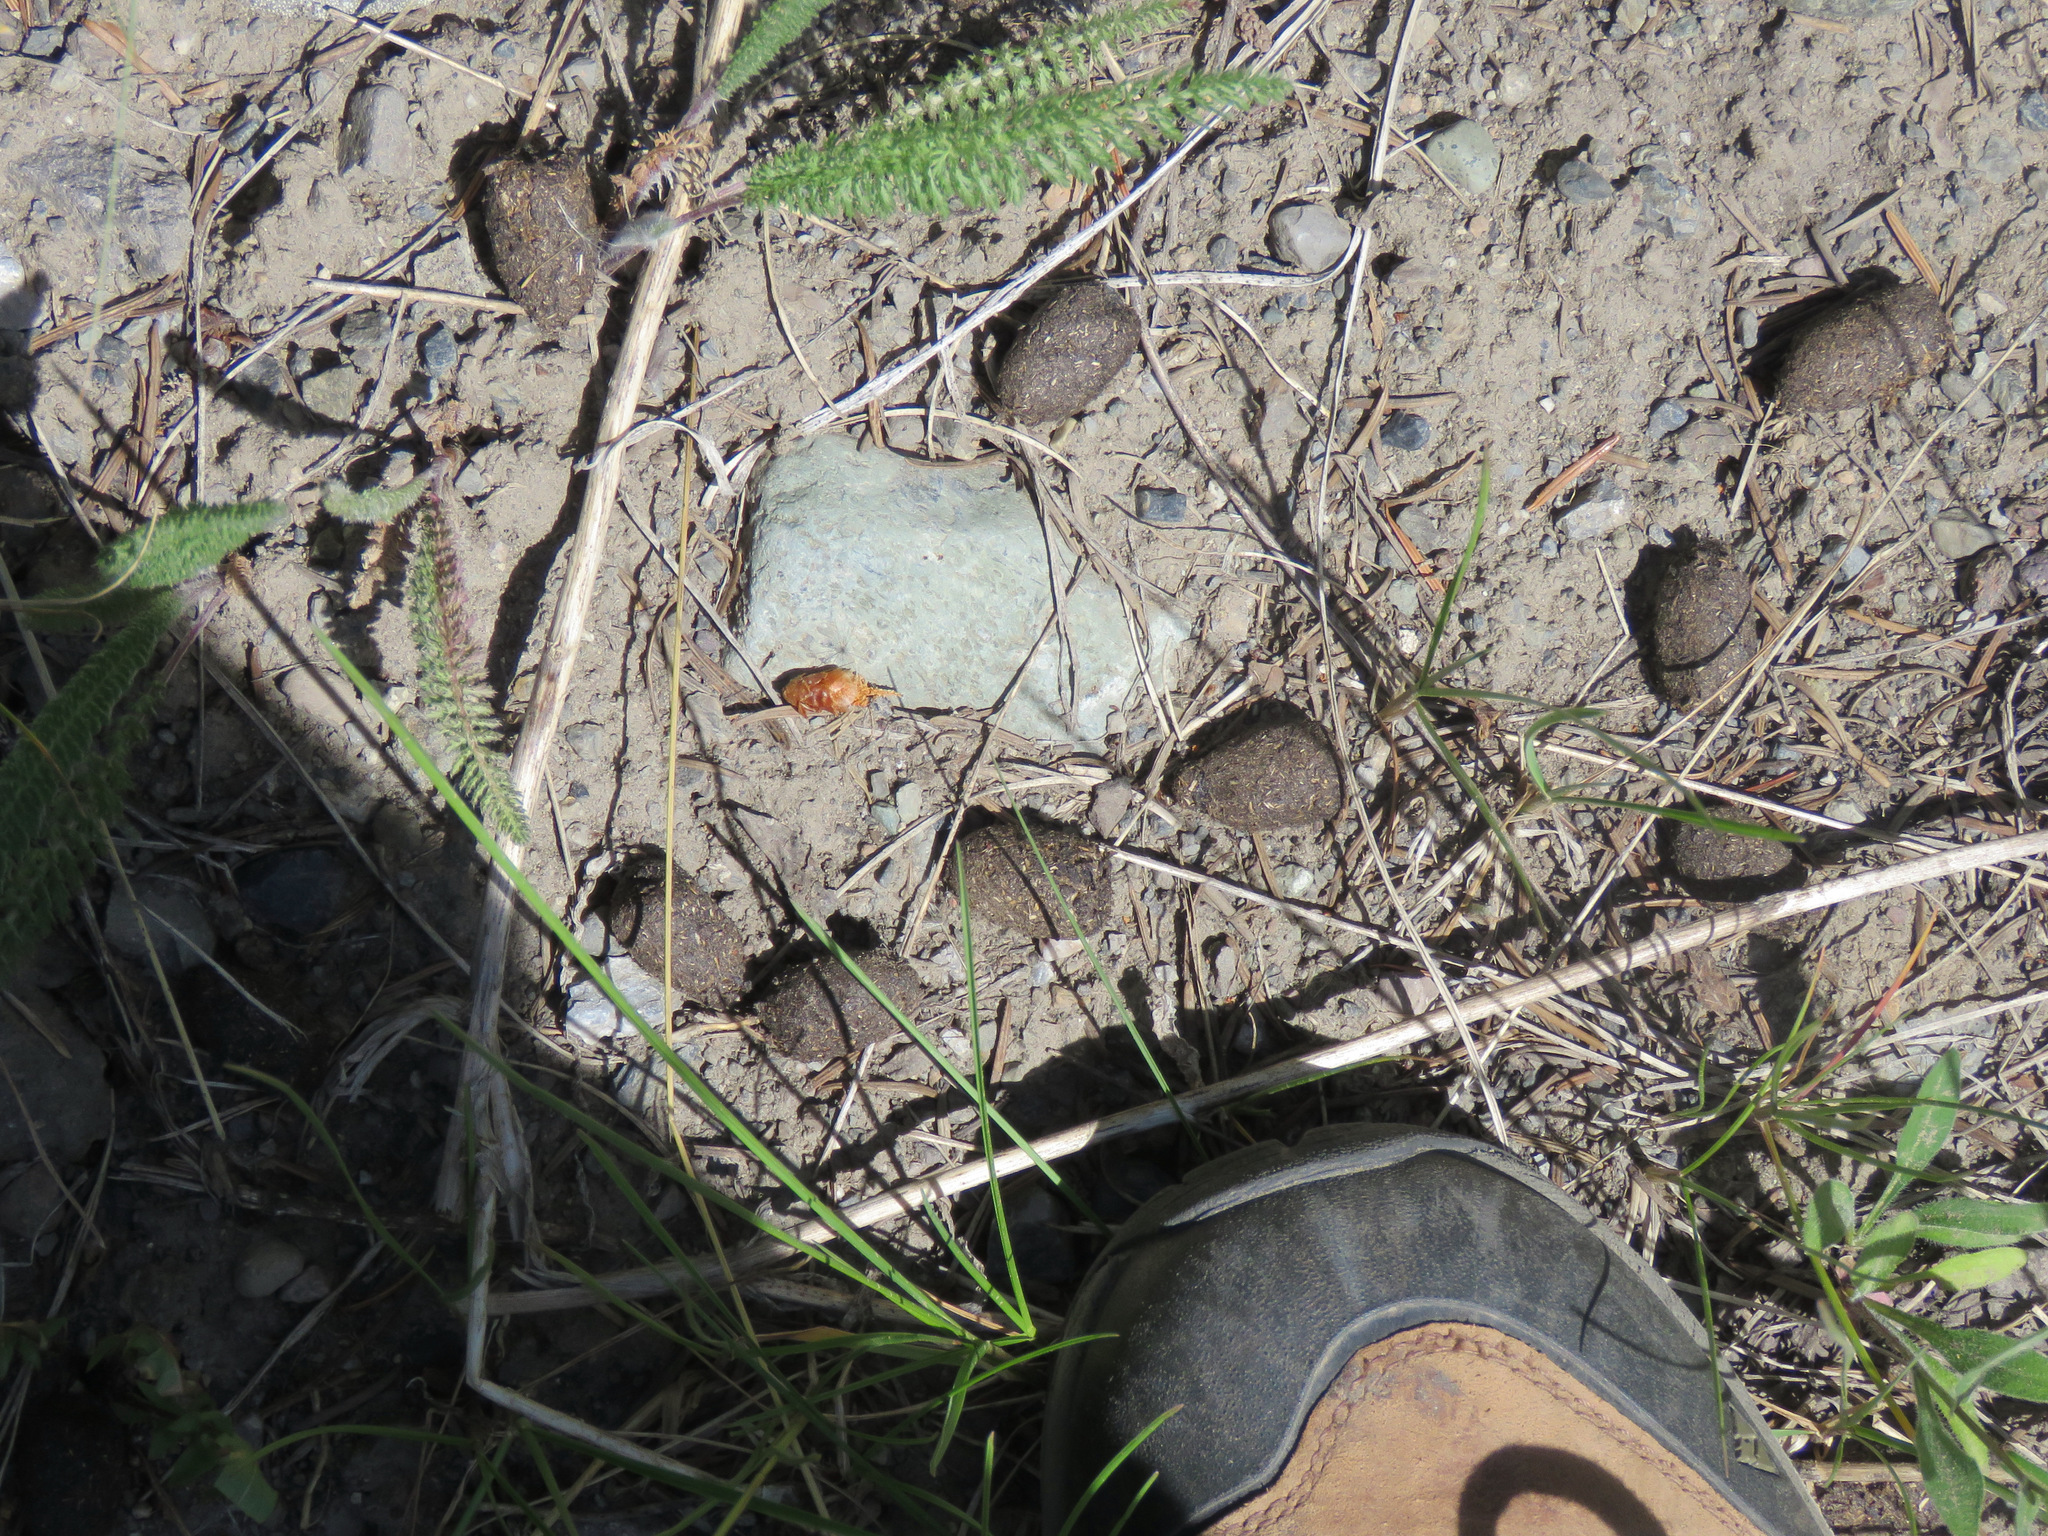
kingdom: Animalia
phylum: Chordata
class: Mammalia
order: Artiodactyla
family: Cervidae
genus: Alces
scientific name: Alces alces
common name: Moose
